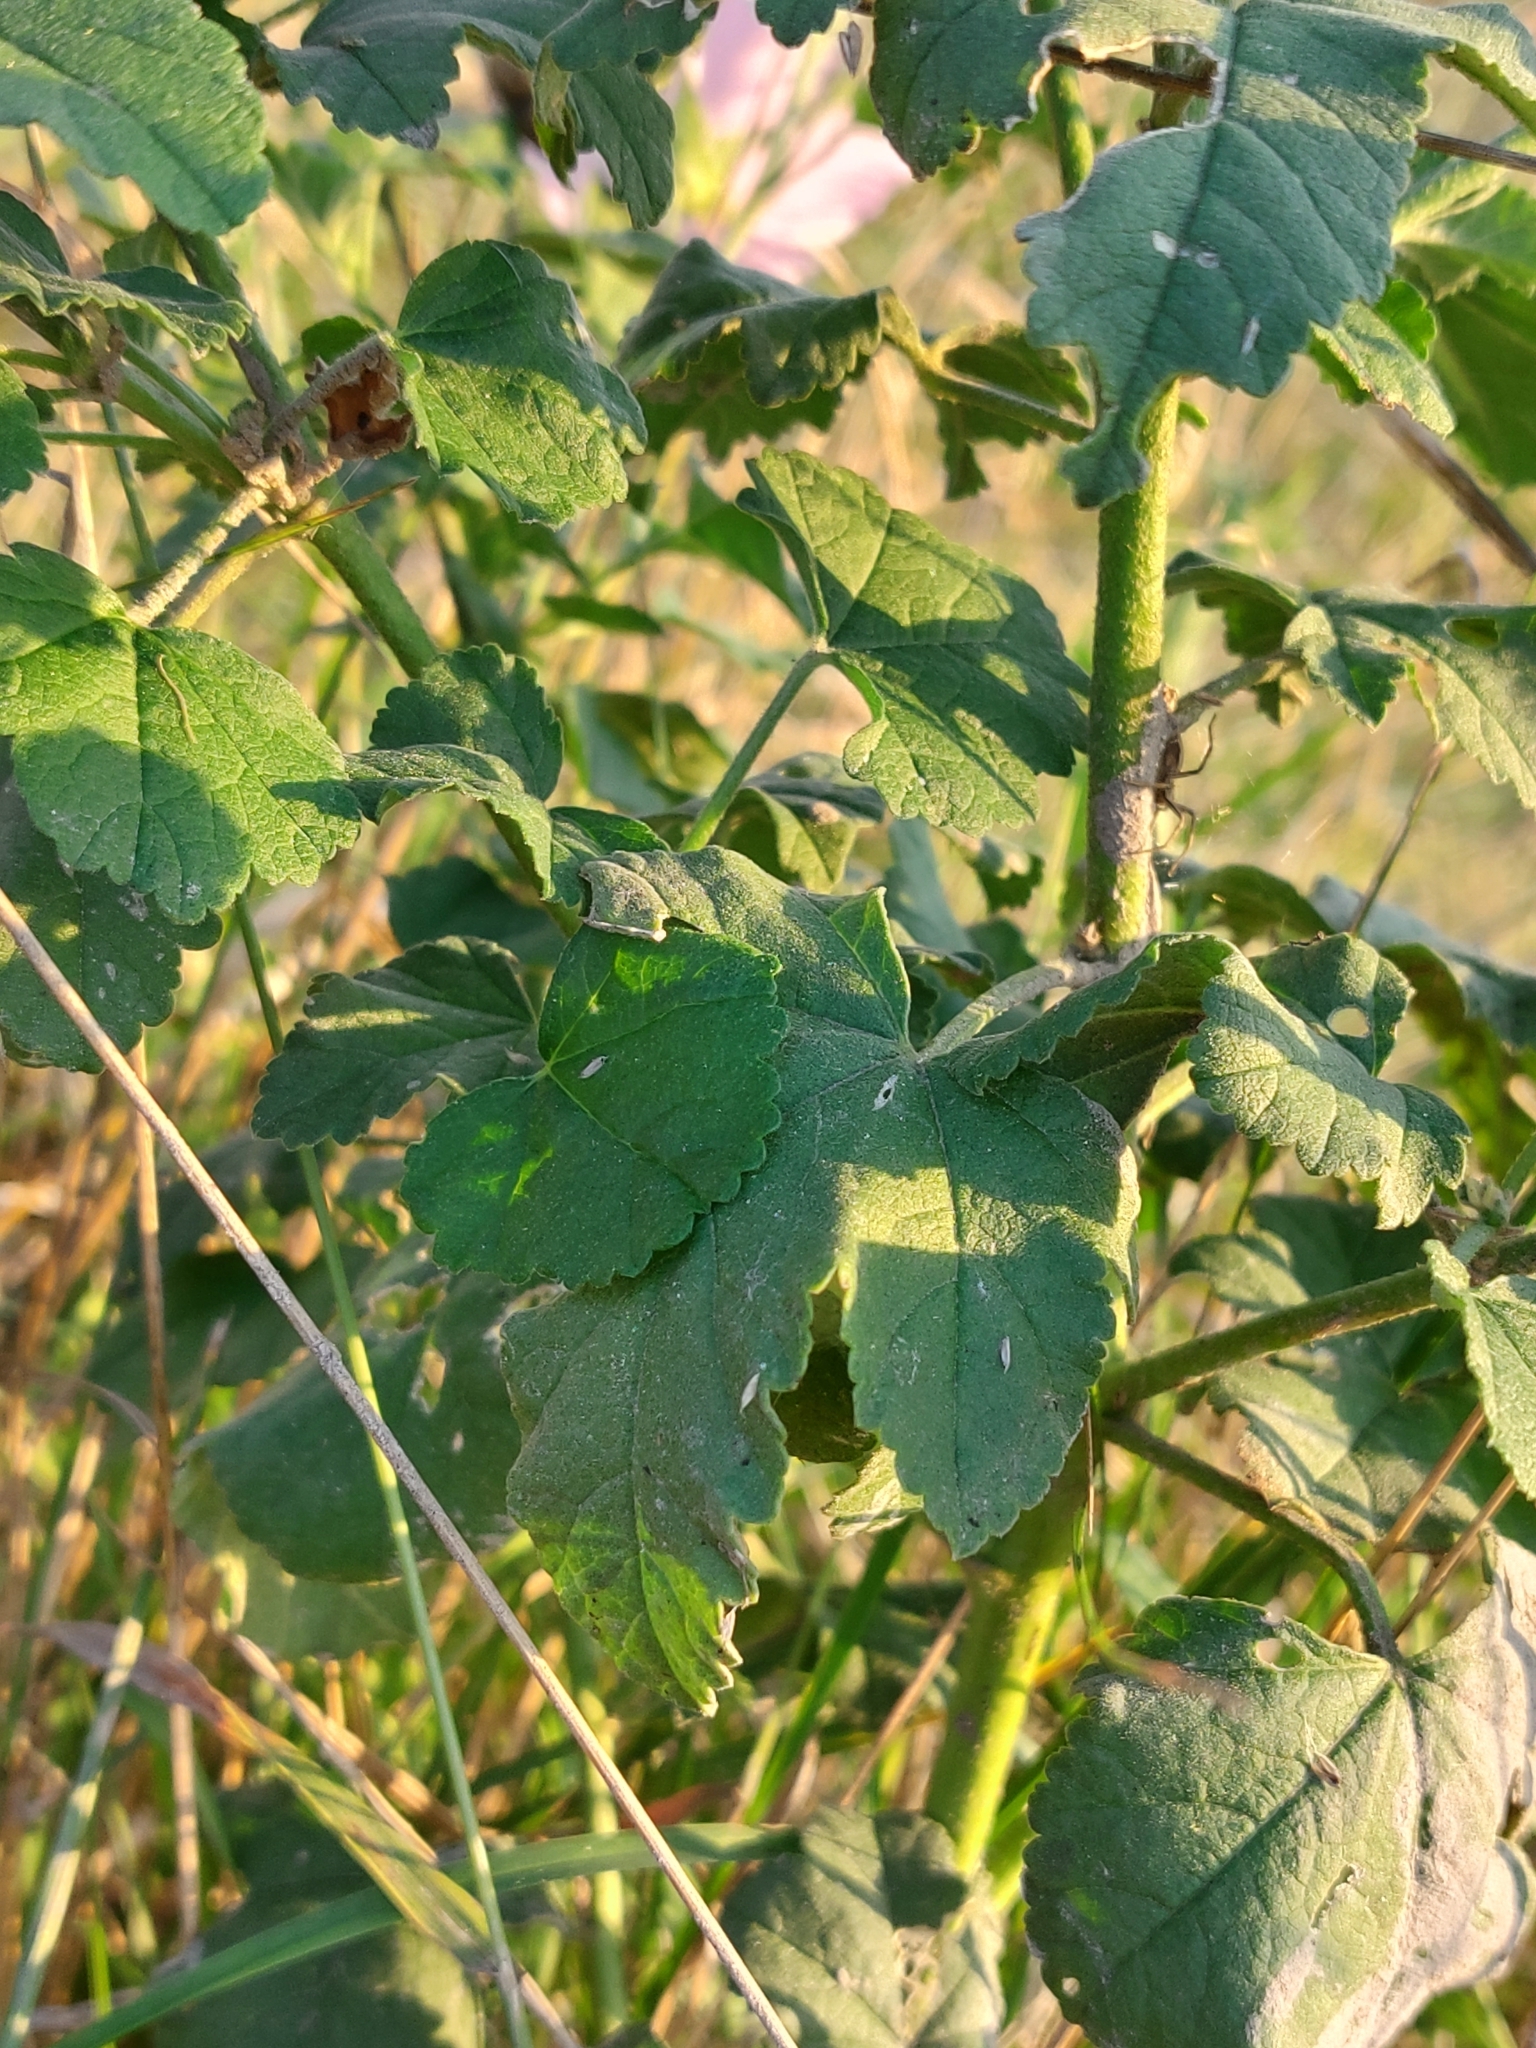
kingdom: Plantae
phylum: Tracheophyta
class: Magnoliopsida
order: Malvales
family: Malvaceae
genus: Malva
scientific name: Malva thuringiaca
